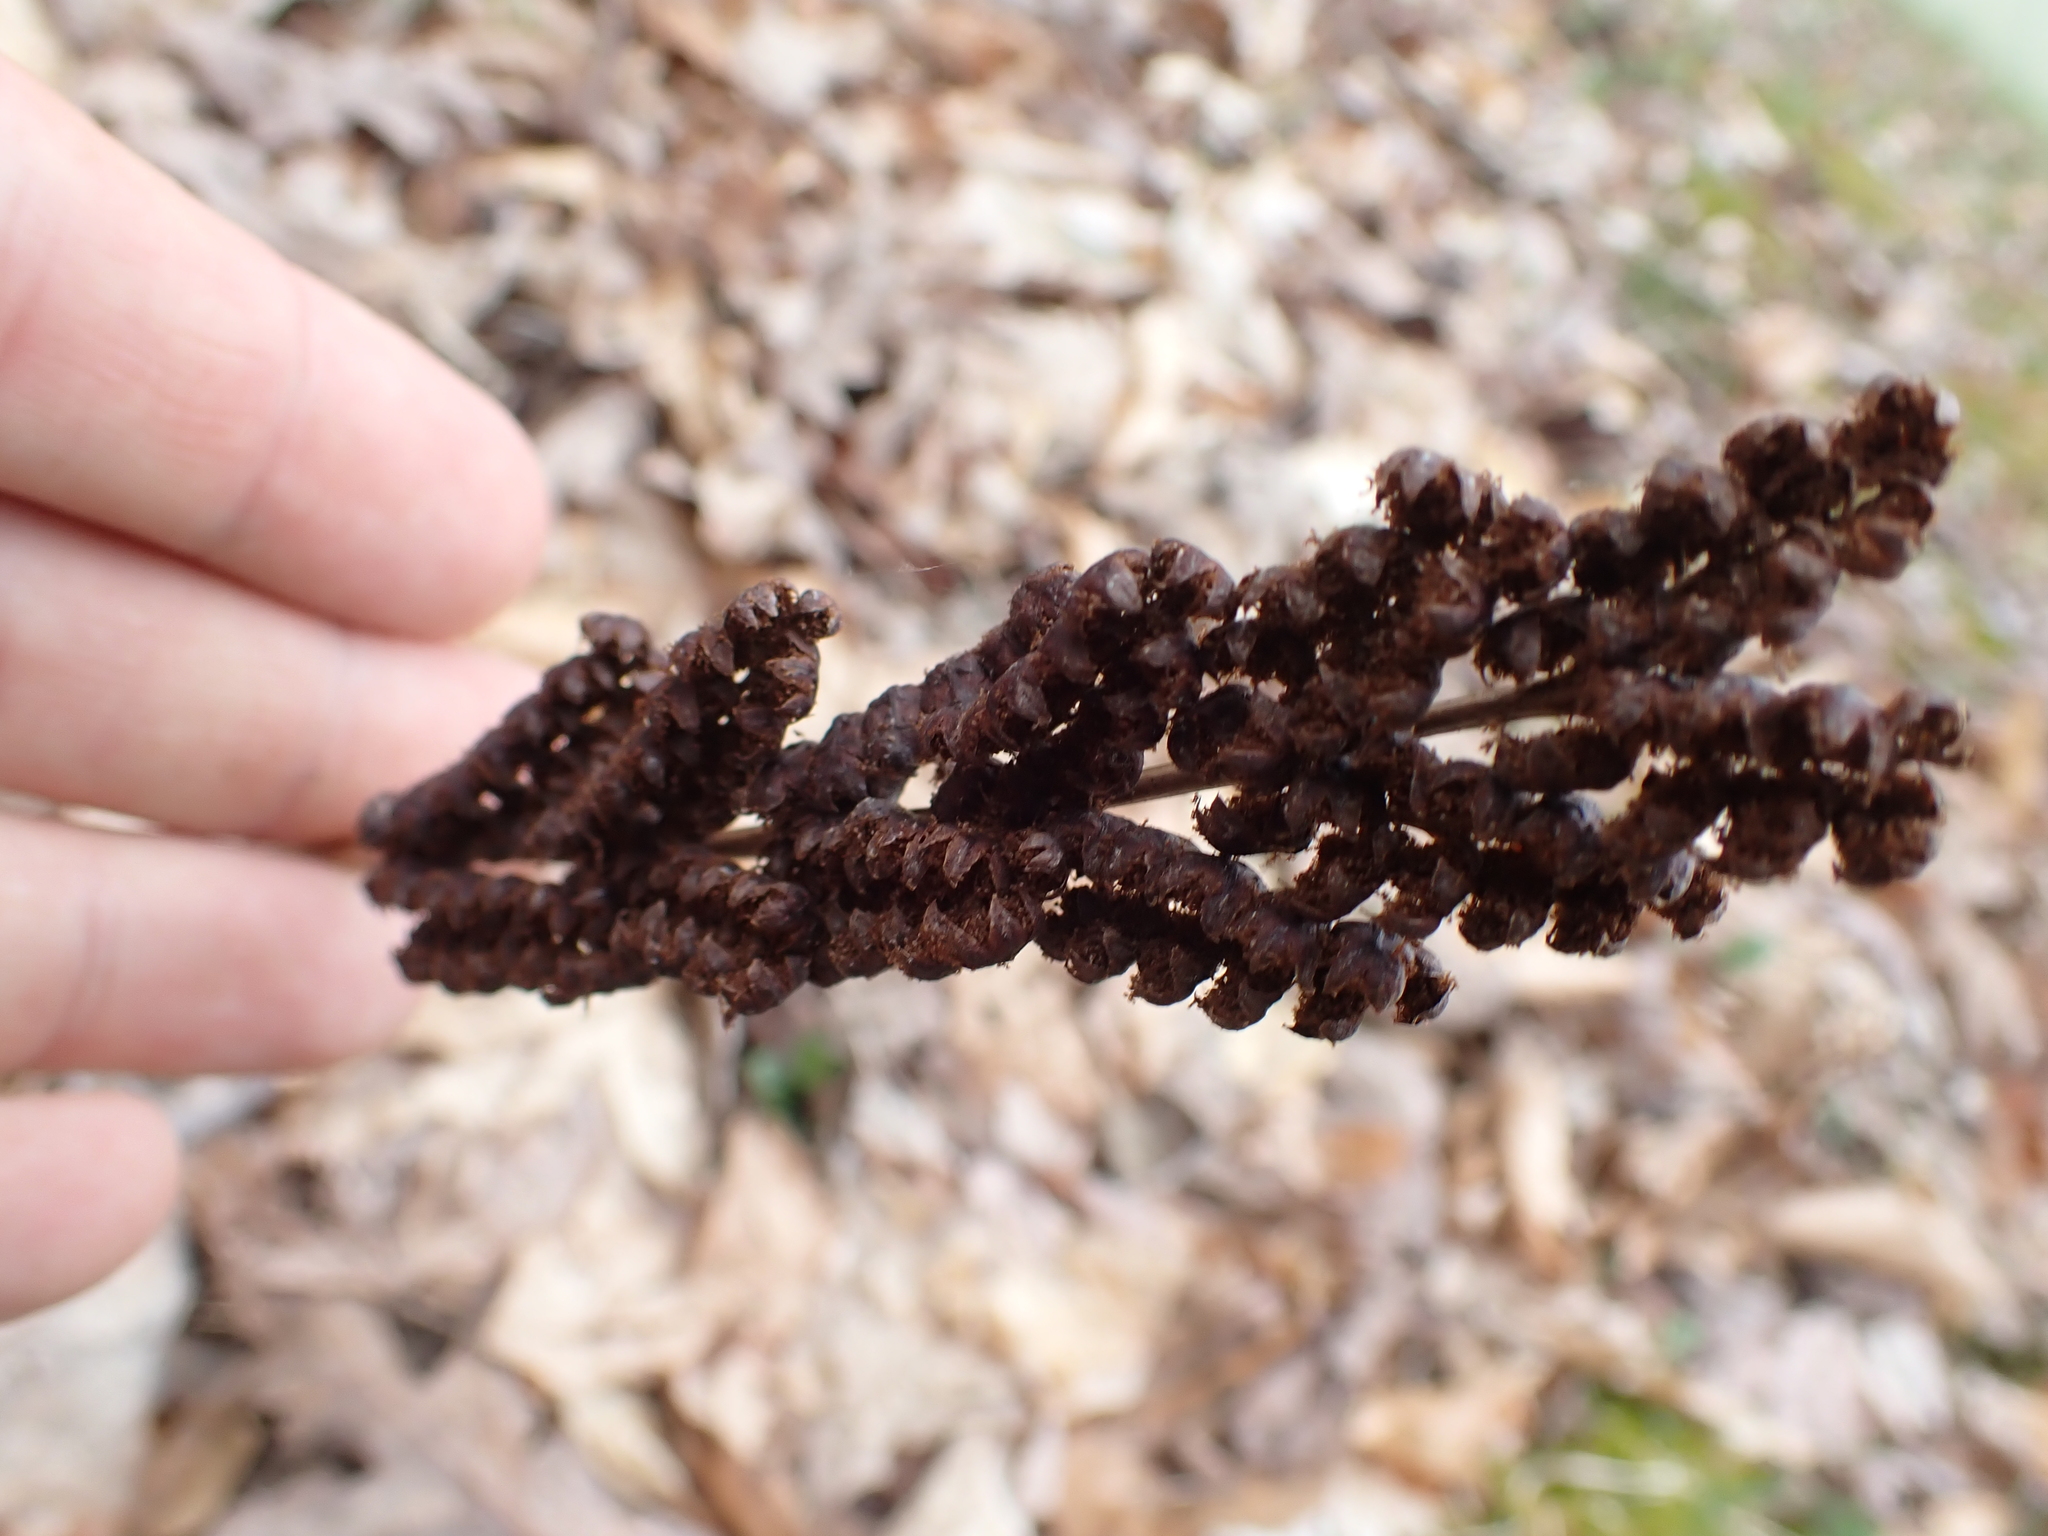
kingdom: Plantae
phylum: Tracheophyta
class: Polypodiopsida
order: Polypodiales
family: Onocleaceae
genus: Onoclea
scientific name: Onoclea sensibilis
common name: Sensitive fern
